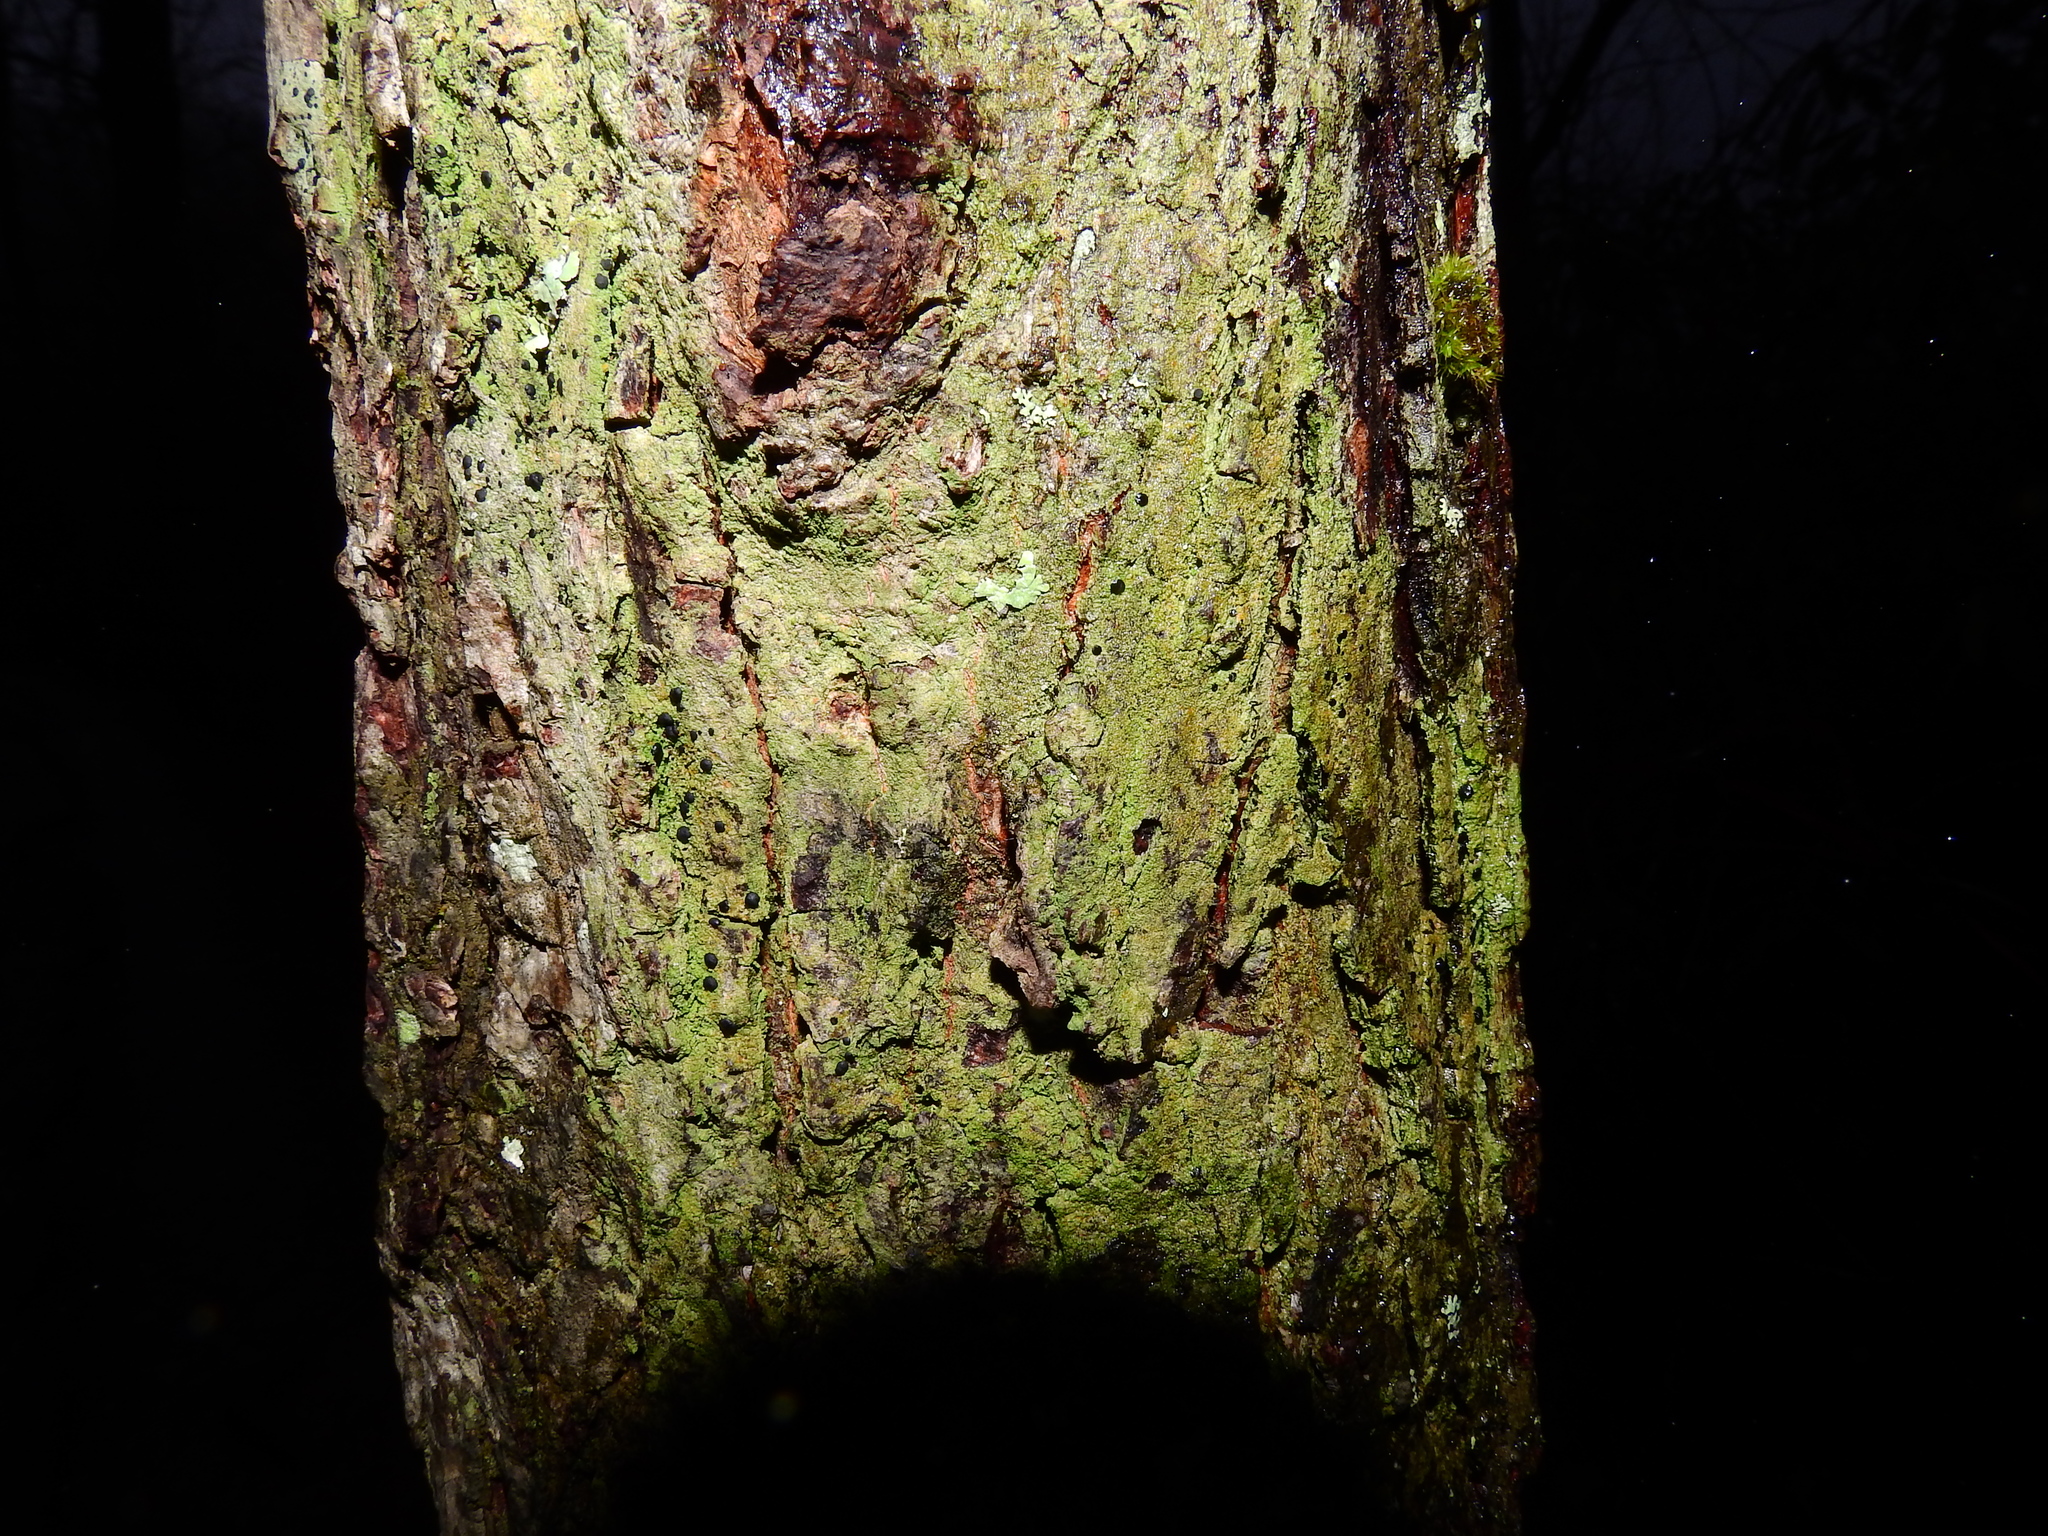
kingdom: Fungi
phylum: Ascomycota
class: Lecanoromycetes
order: Lecanorales
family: Ramalinaceae
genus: Bacidia
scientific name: Bacidia schweinitzii
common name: Surprise lichen
